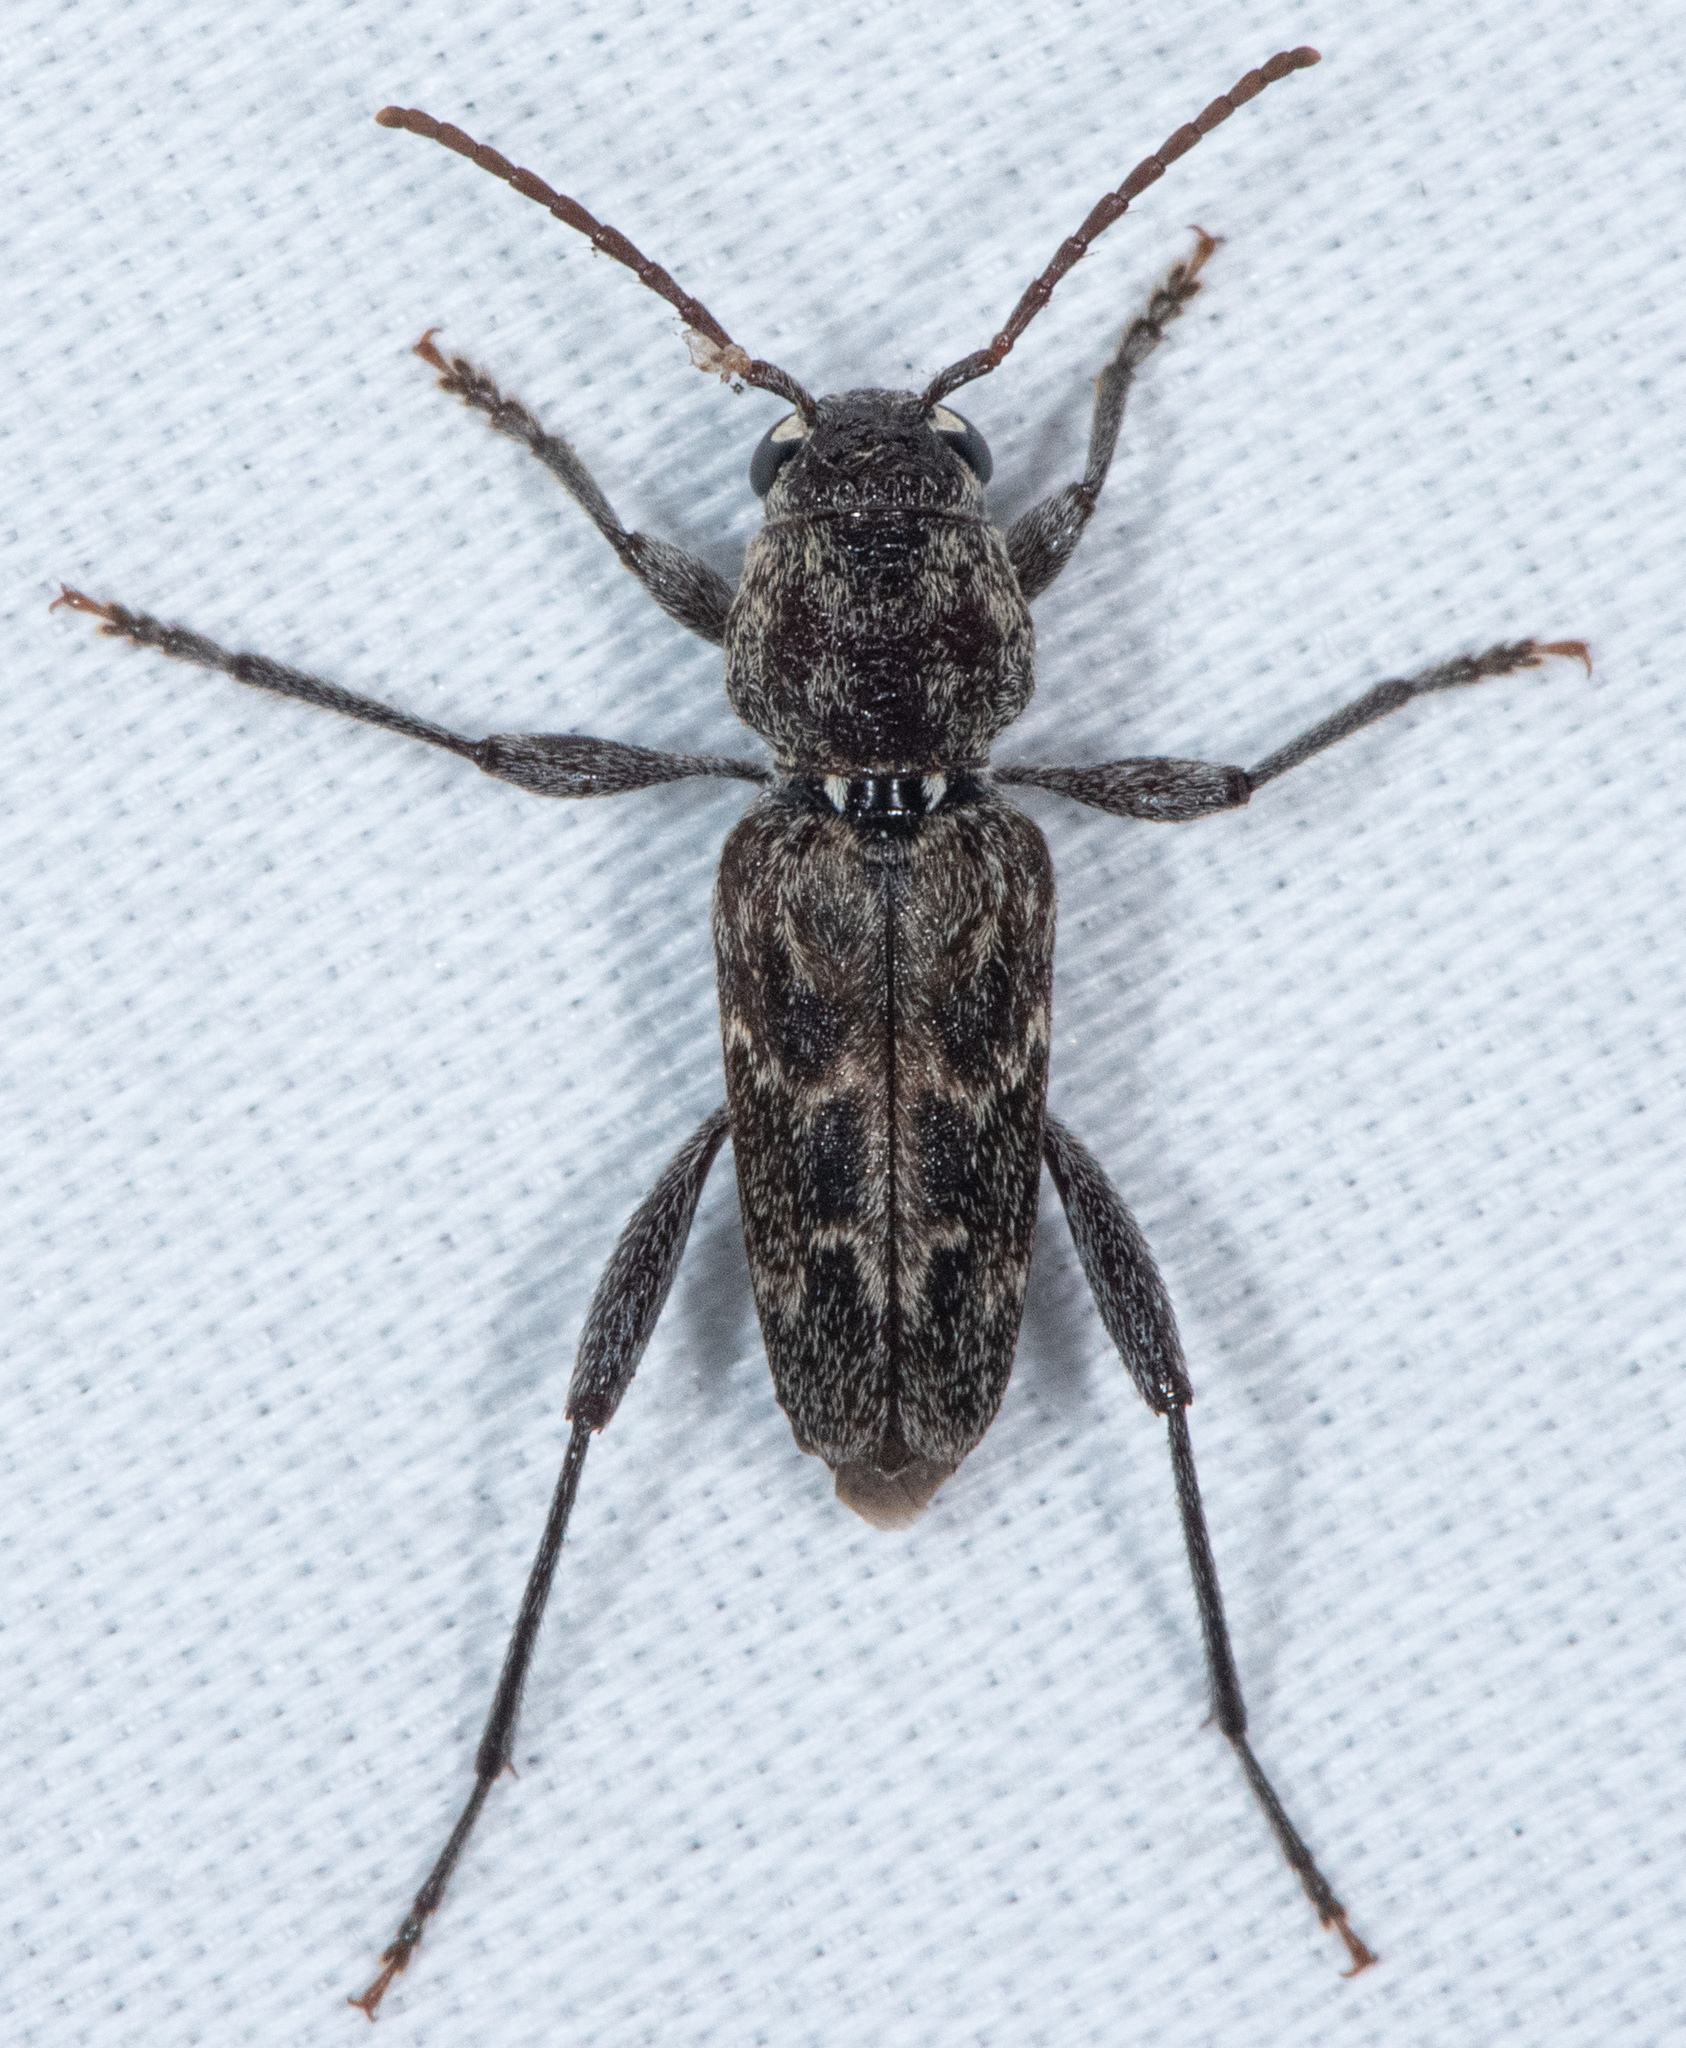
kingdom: Animalia
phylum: Arthropoda
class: Insecta
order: Coleoptera
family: Cerambycidae
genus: Xylotrechus
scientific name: Xylotrechus nauticus
